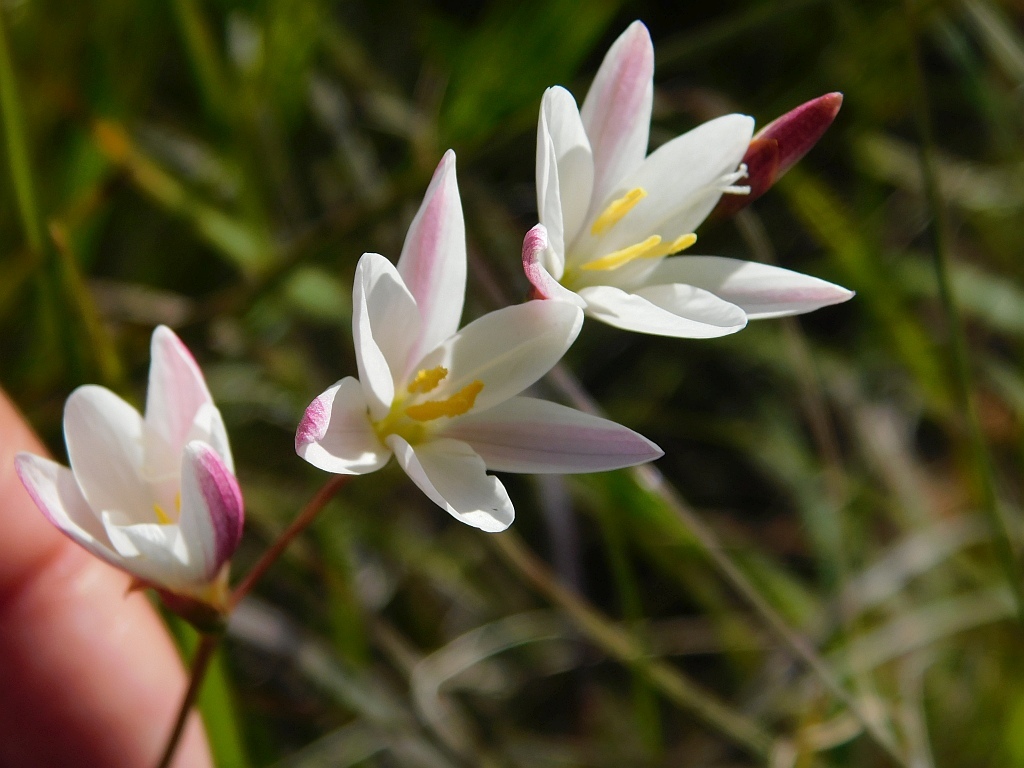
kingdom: Plantae
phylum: Tracheophyta
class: Liliopsida
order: Asparagales
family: Iridaceae
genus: Geissorhiza
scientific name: Geissorhiza inflexa
